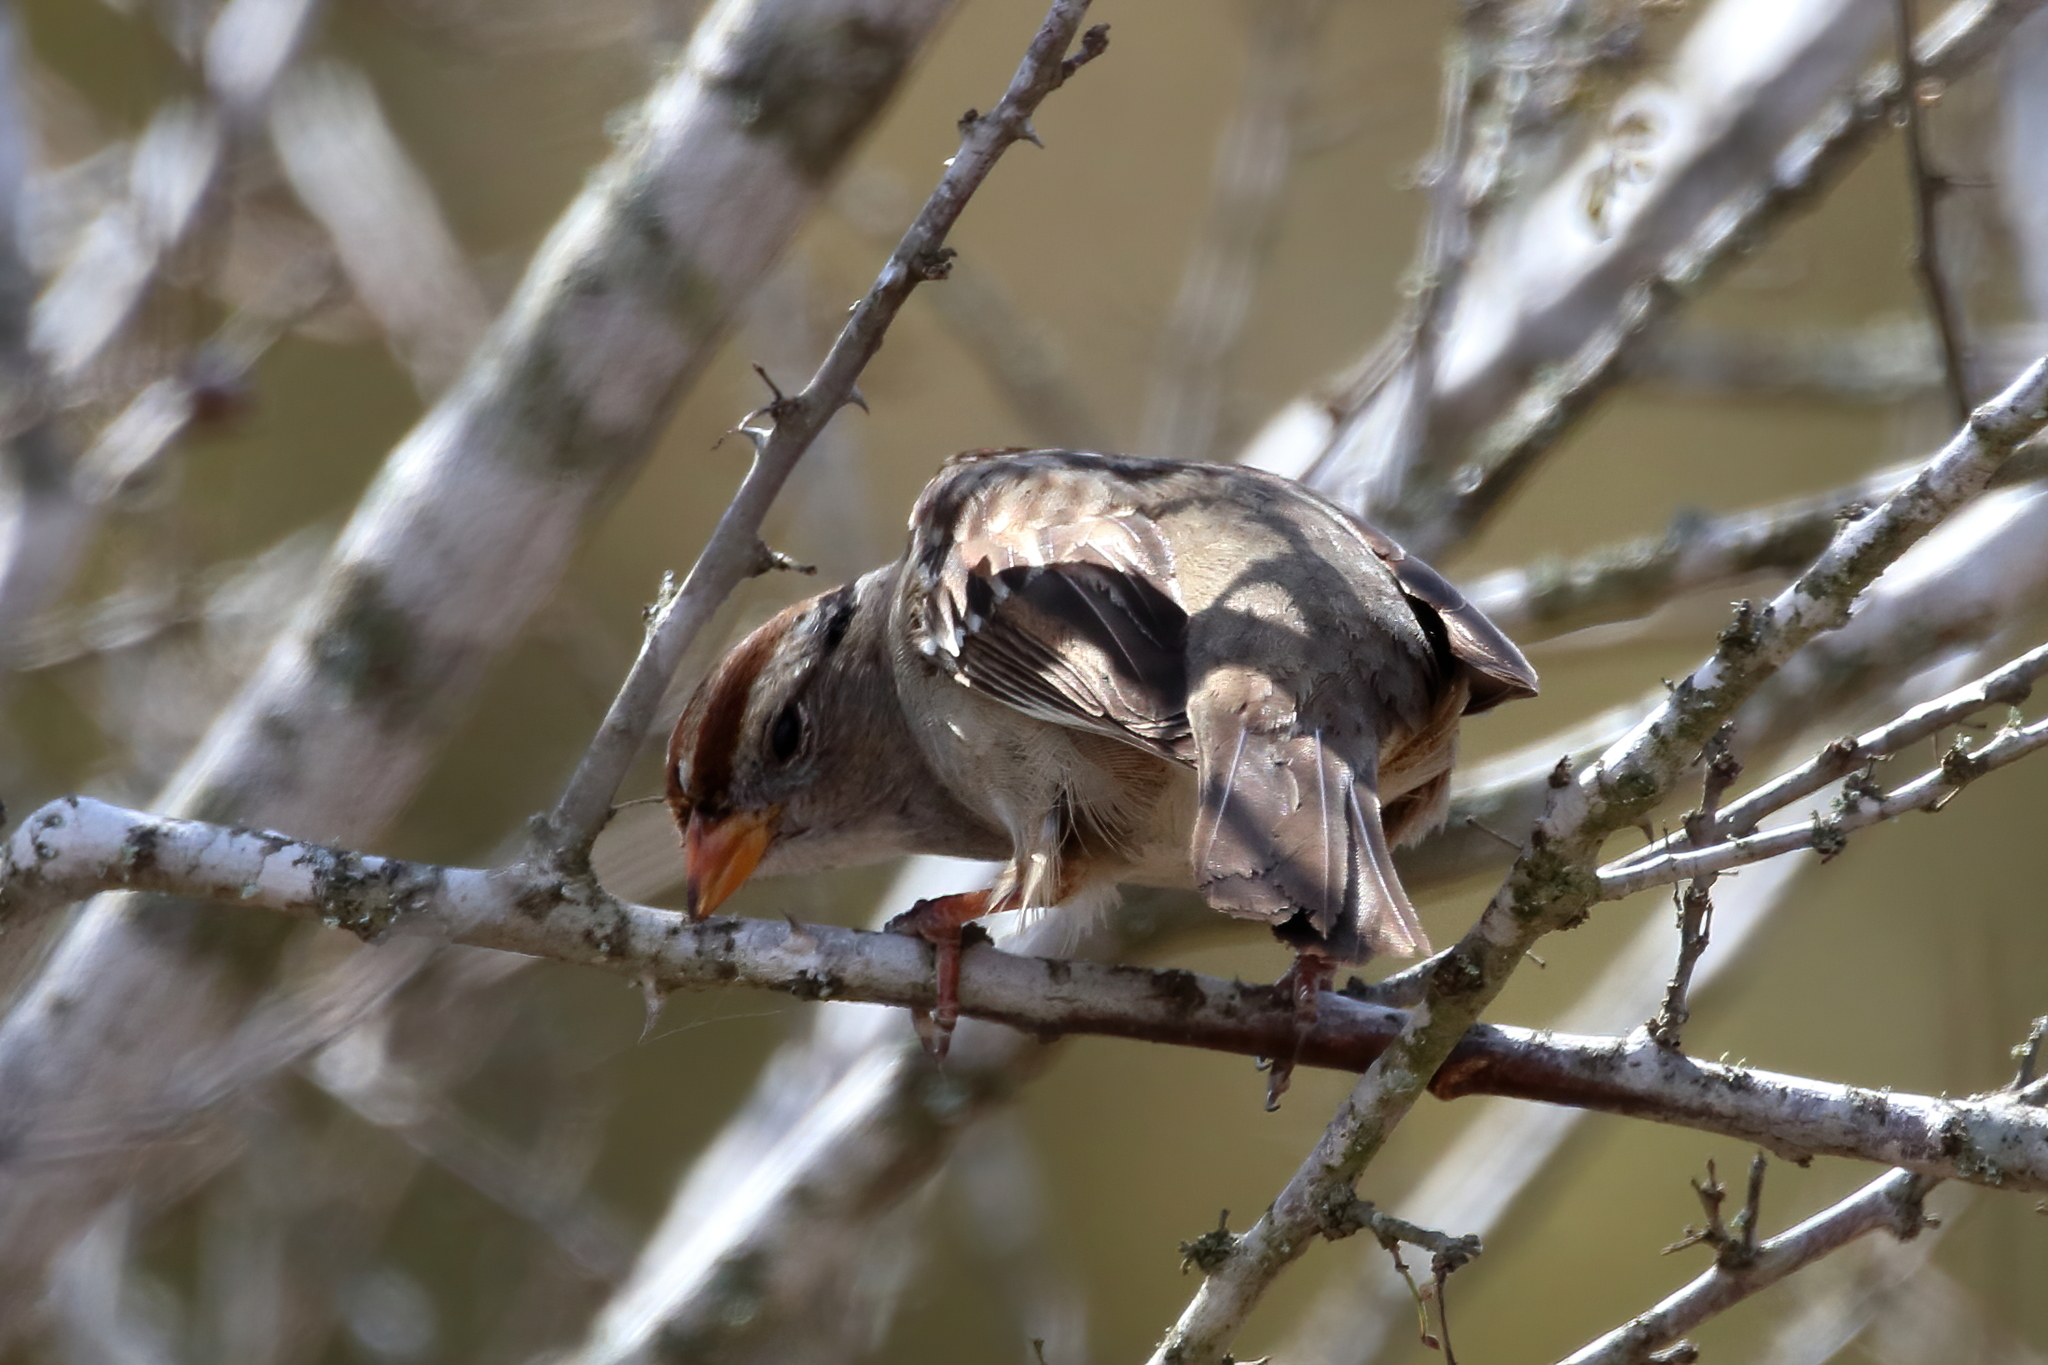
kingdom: Animalia
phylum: Chordata
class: Aves
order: Passeriformes
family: Passerellidae
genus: Zonotrichia
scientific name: Zonotrichia leucophrys
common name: White-crowned sparrow
